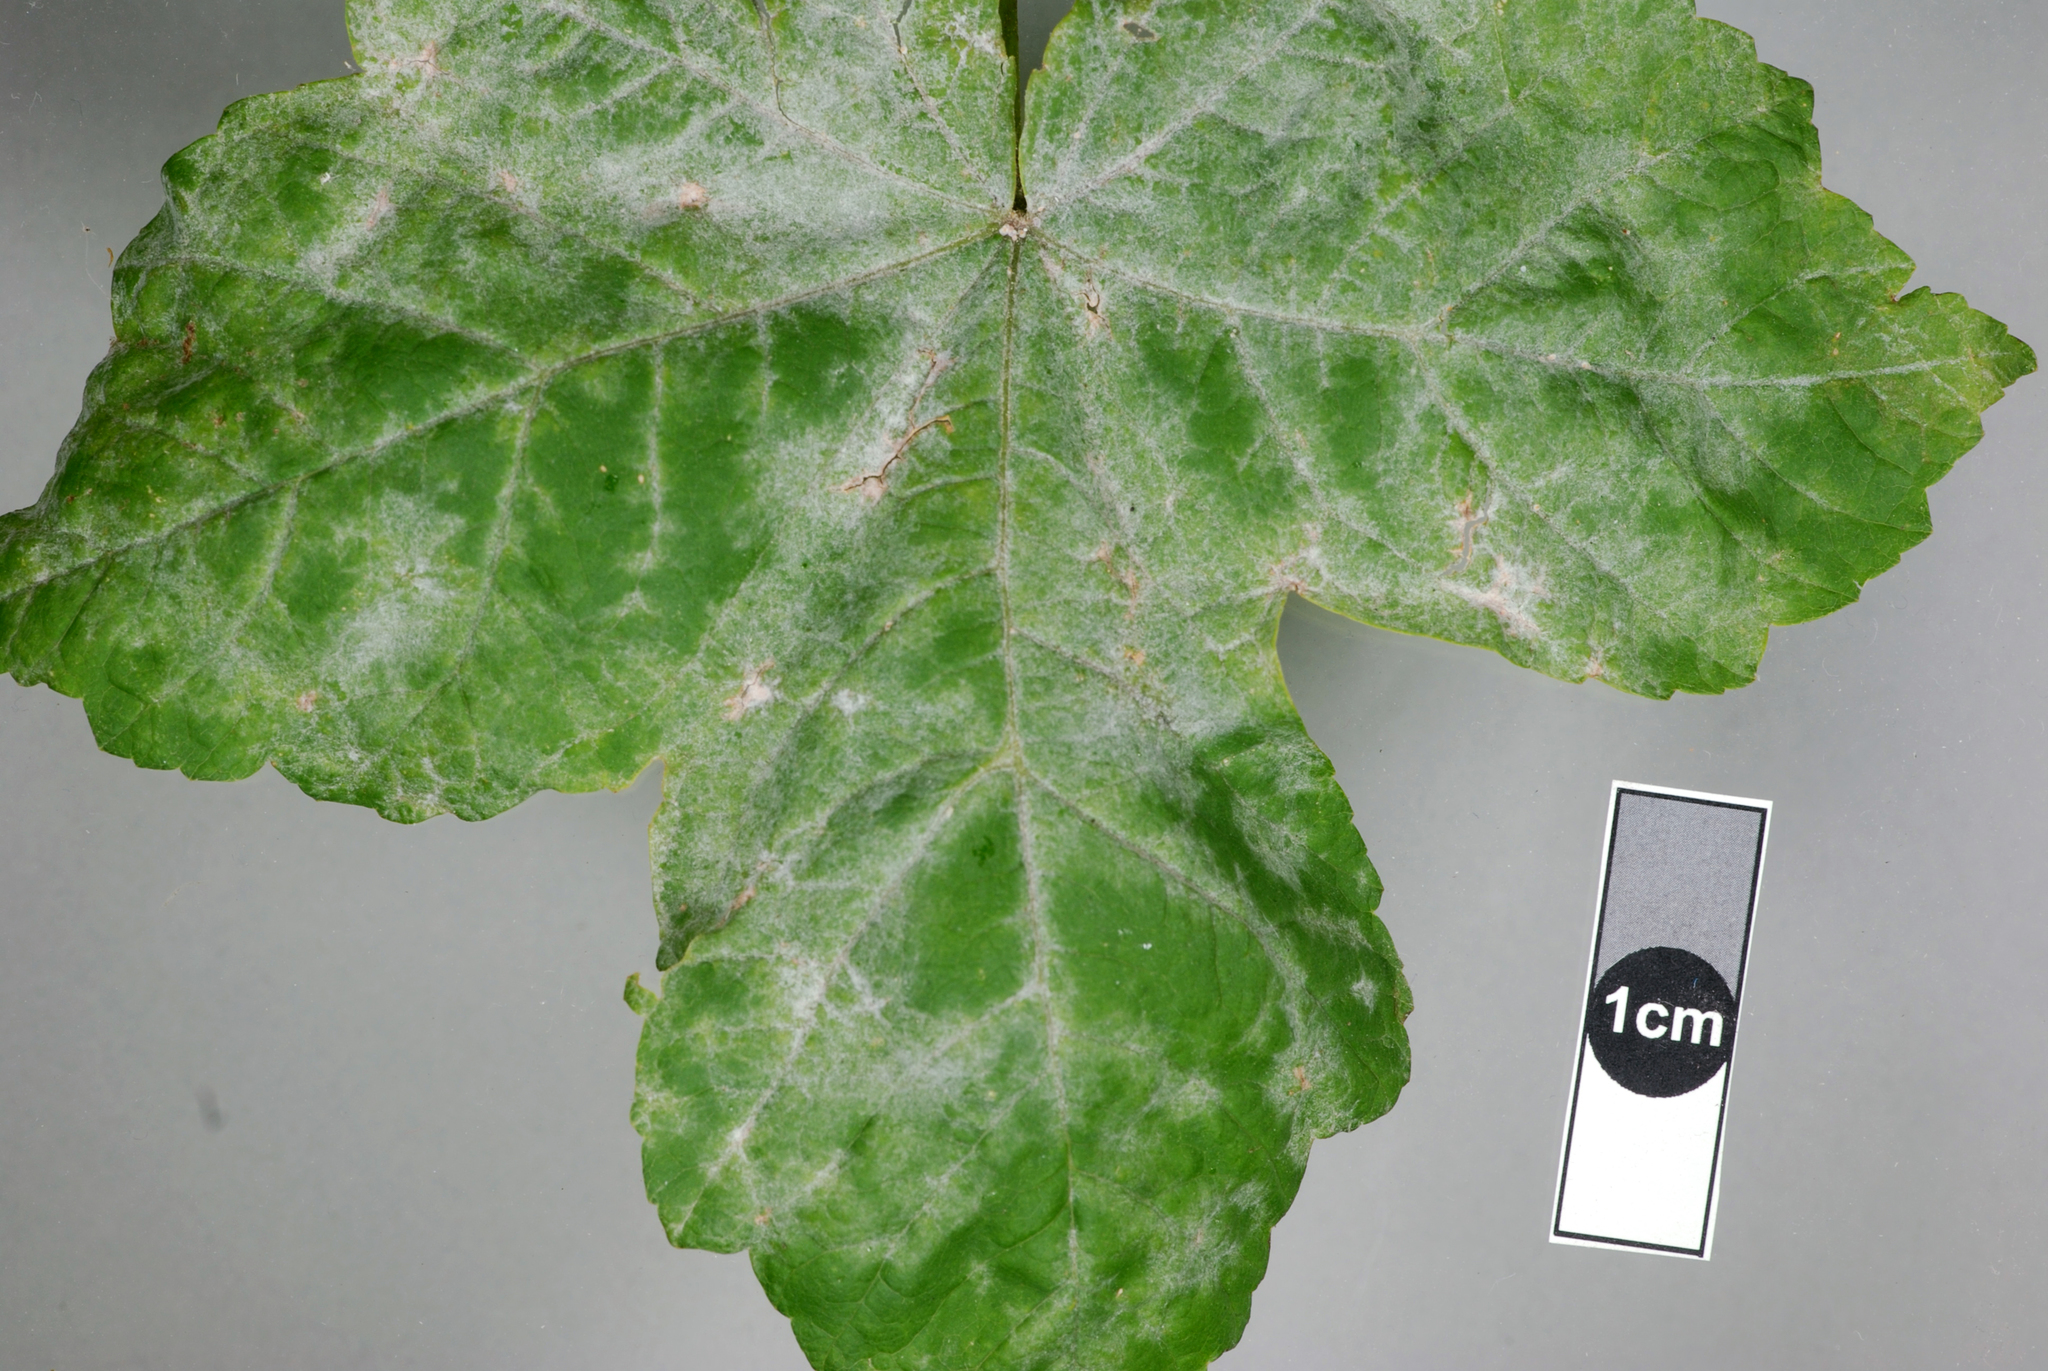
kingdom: Fungi
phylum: Ascomycota
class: Leotiomycetes
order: Helotiales
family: Erysiphaceae
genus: Sawadaea
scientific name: Sawadaea bicornis
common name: Maple mildew
